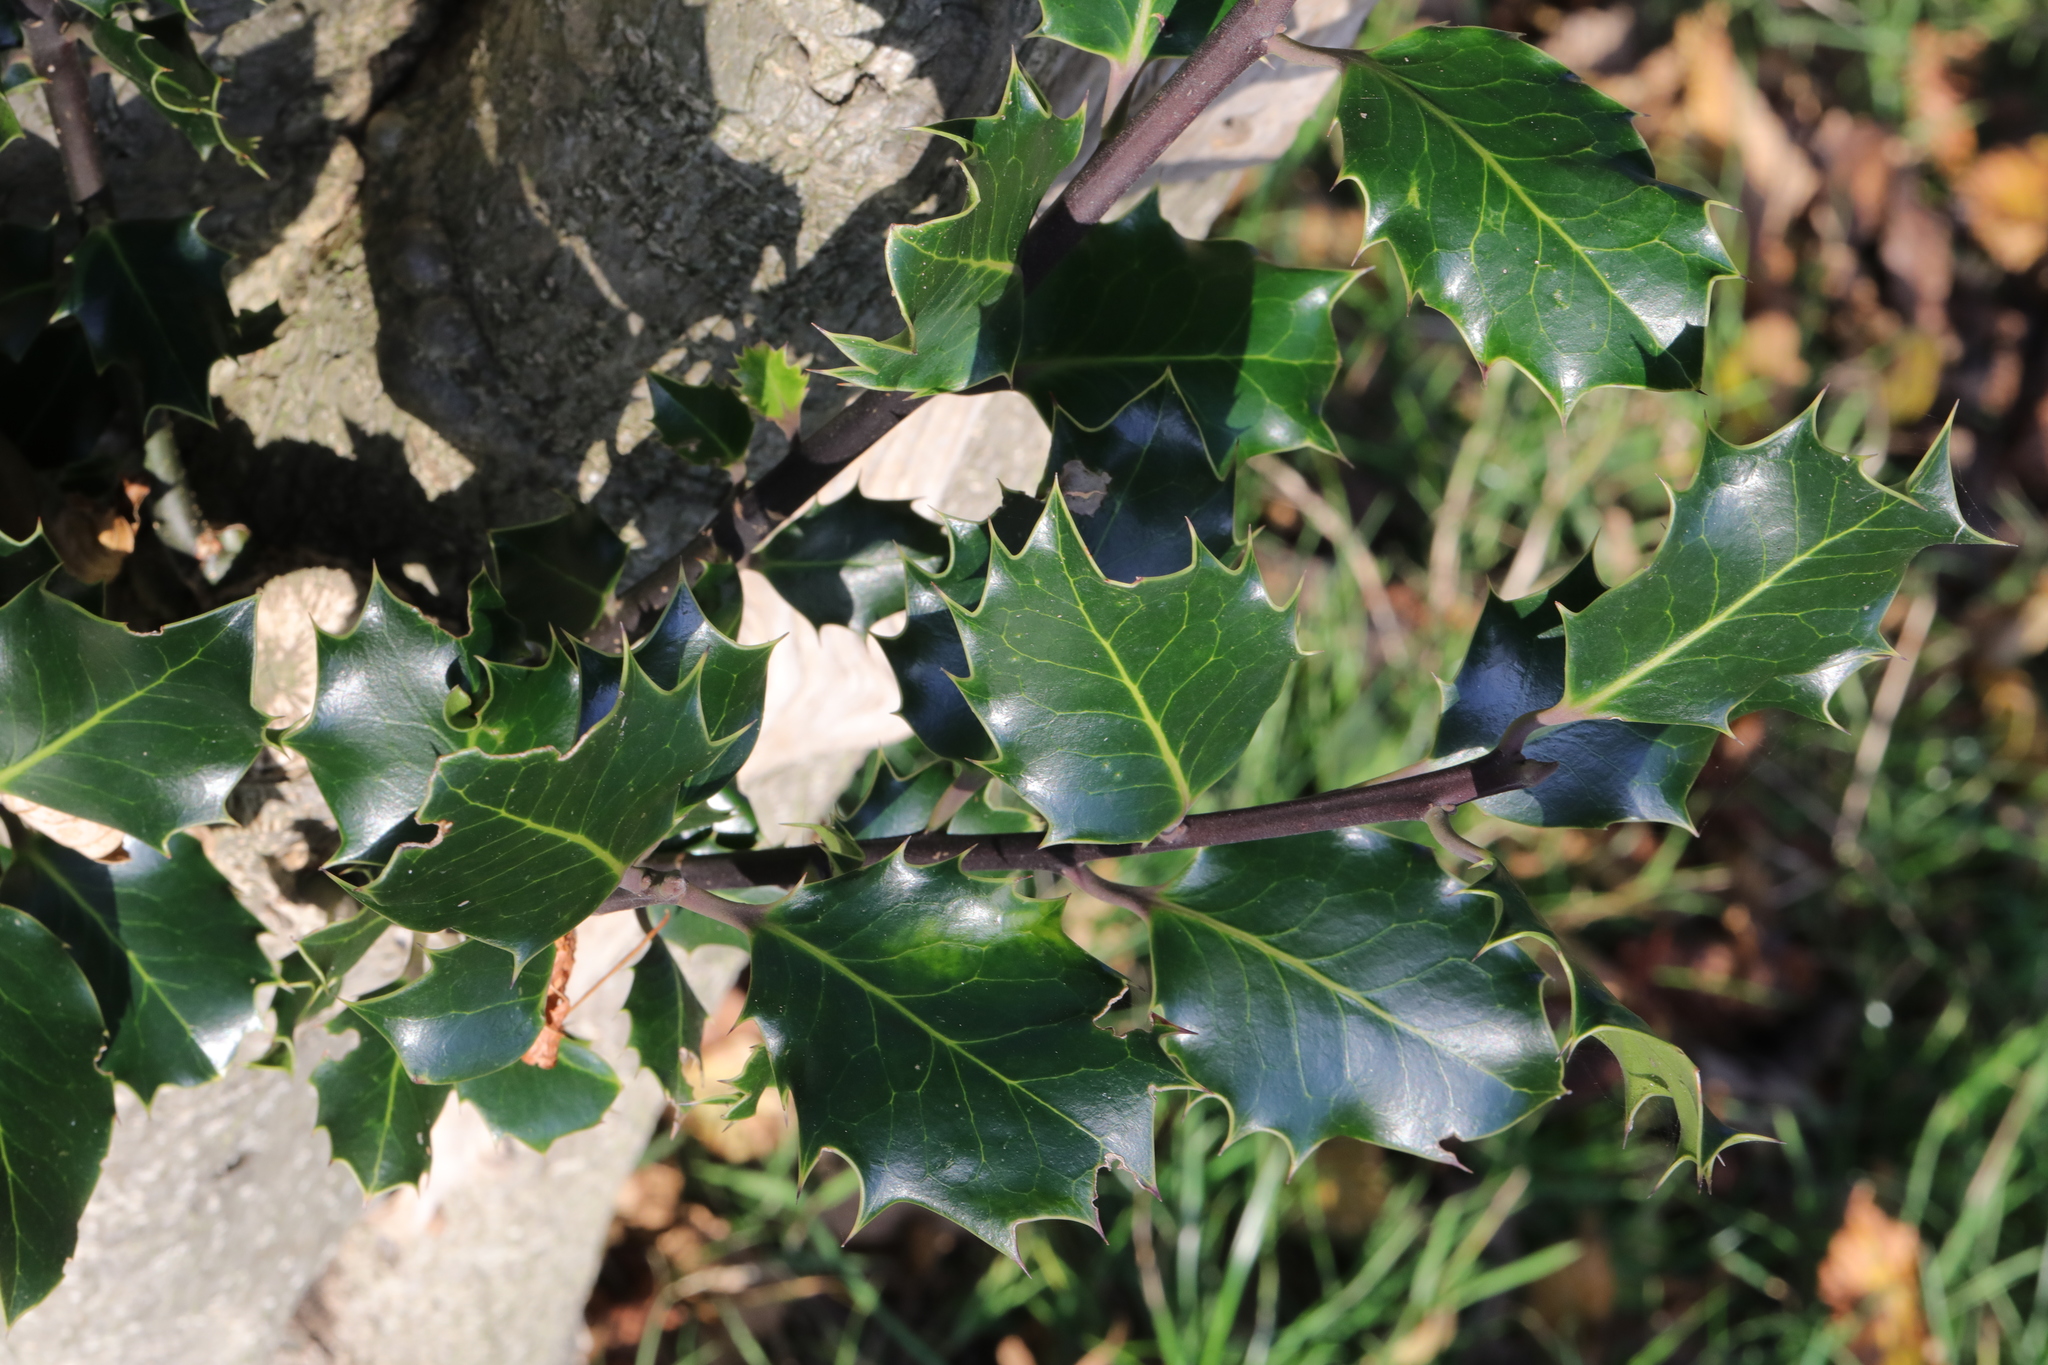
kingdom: Plantae
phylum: Tracheophyta
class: Magnoliopsida
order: Aquifoliales
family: Aquifoliaceae
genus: Ilex
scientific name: Ilex aquifolium
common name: English holly
